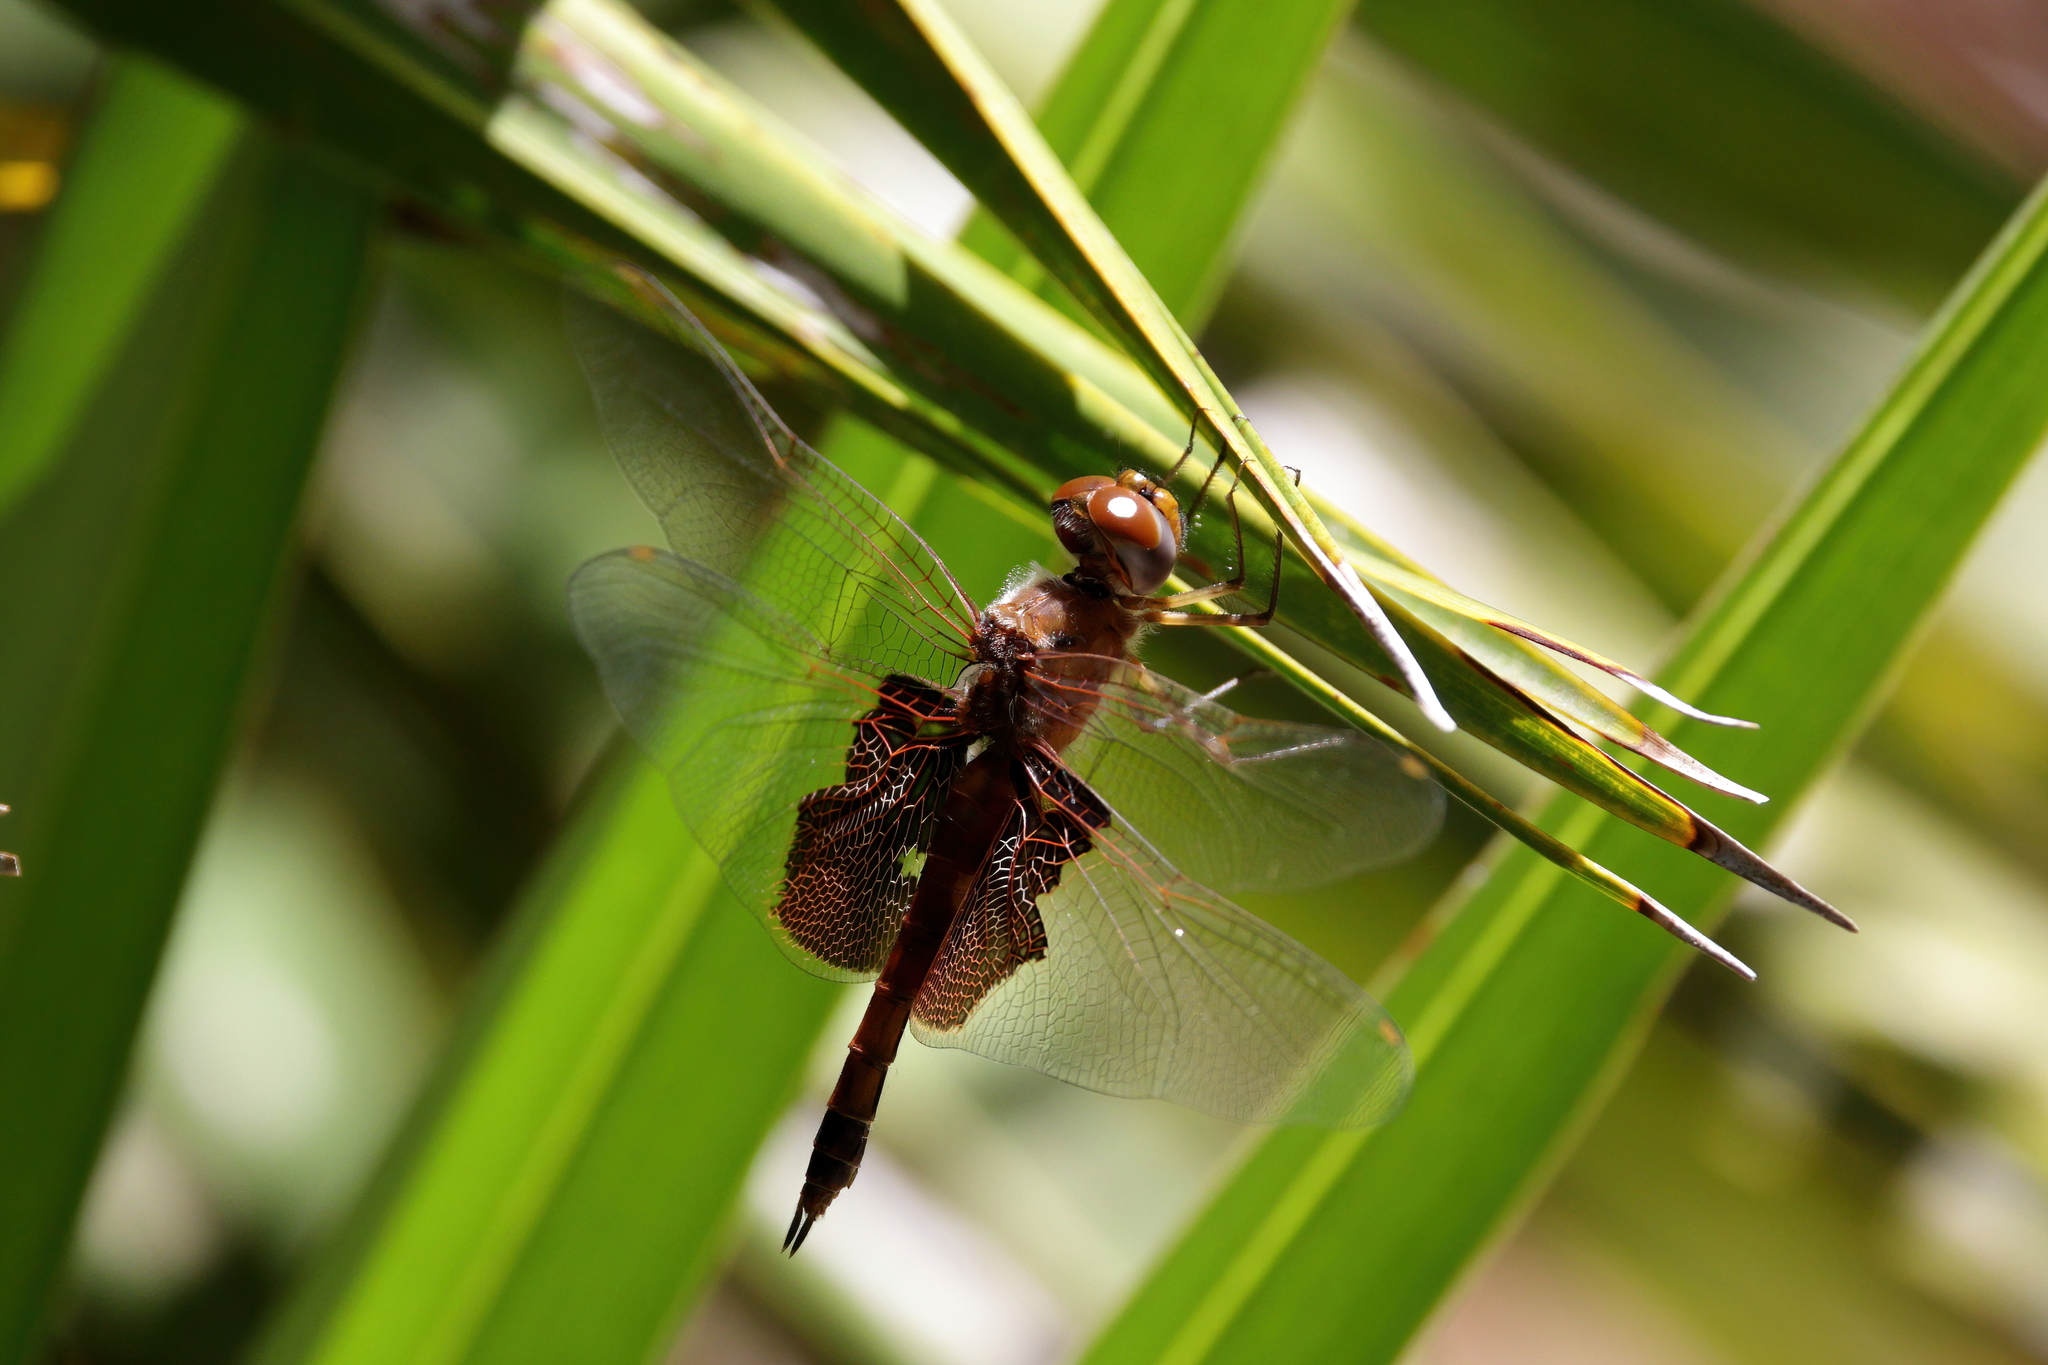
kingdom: Animalia
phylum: Arthropoda
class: Insecta
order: Odonata
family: Libellulidae
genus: Tramea
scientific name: Tramea carolina
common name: Carolina saddlebags
